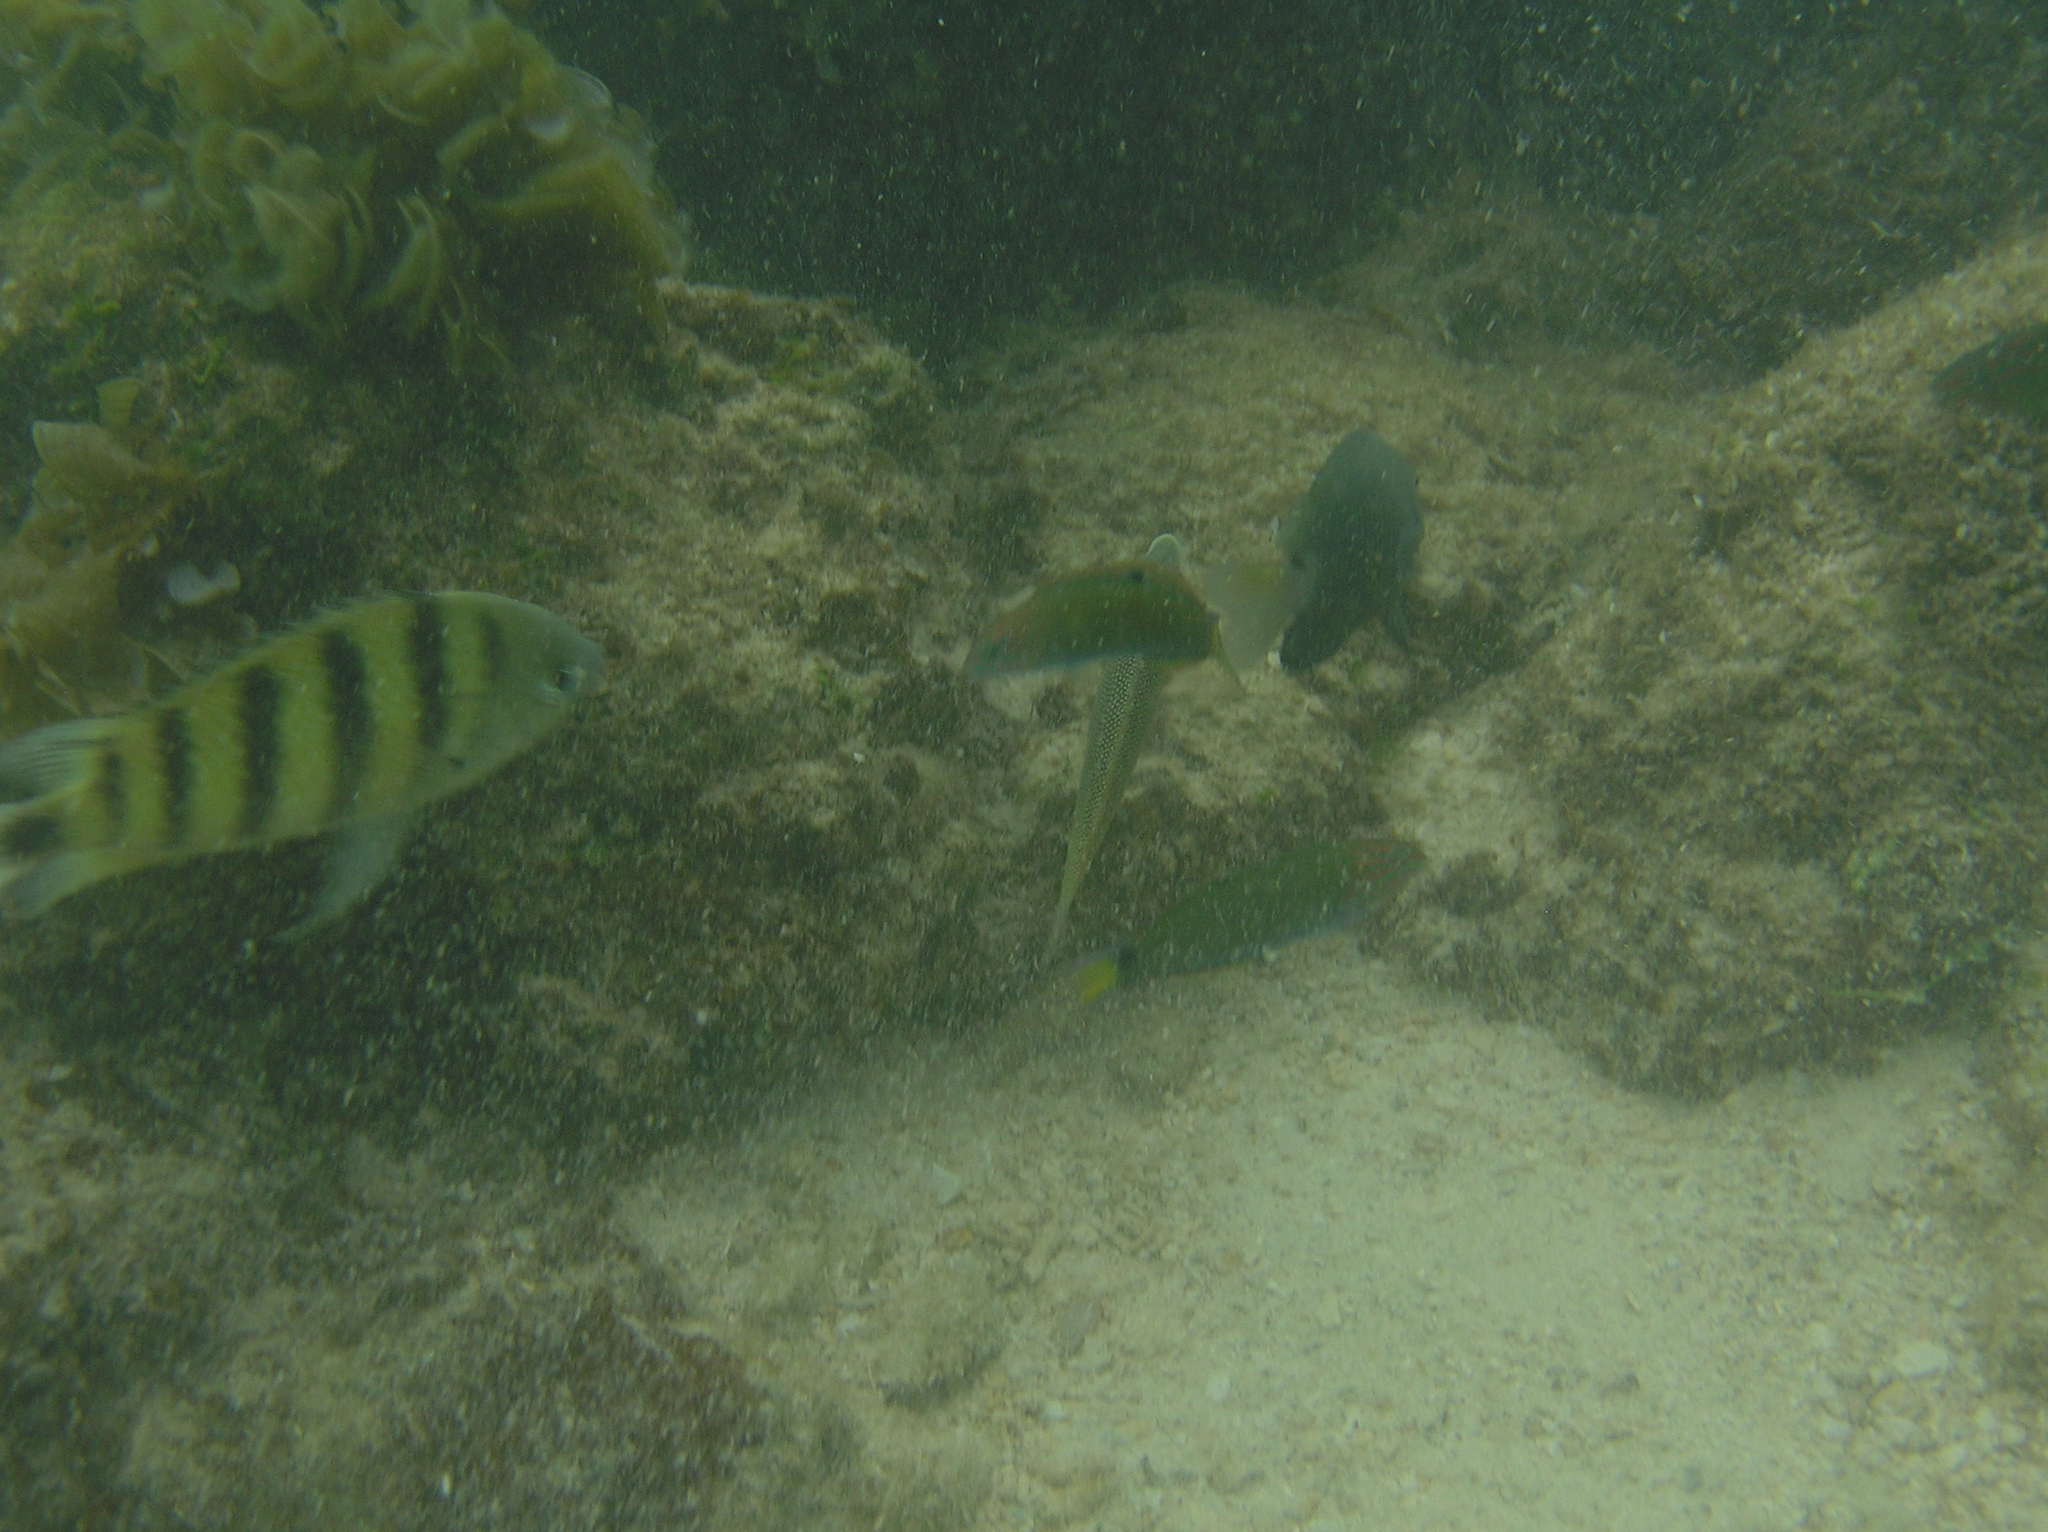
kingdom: Animalia
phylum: Chordata
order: Perciformes
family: Pomacentridae
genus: Abudefduf
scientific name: Abudefduf lorenzi
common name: Black-tail sergeant
